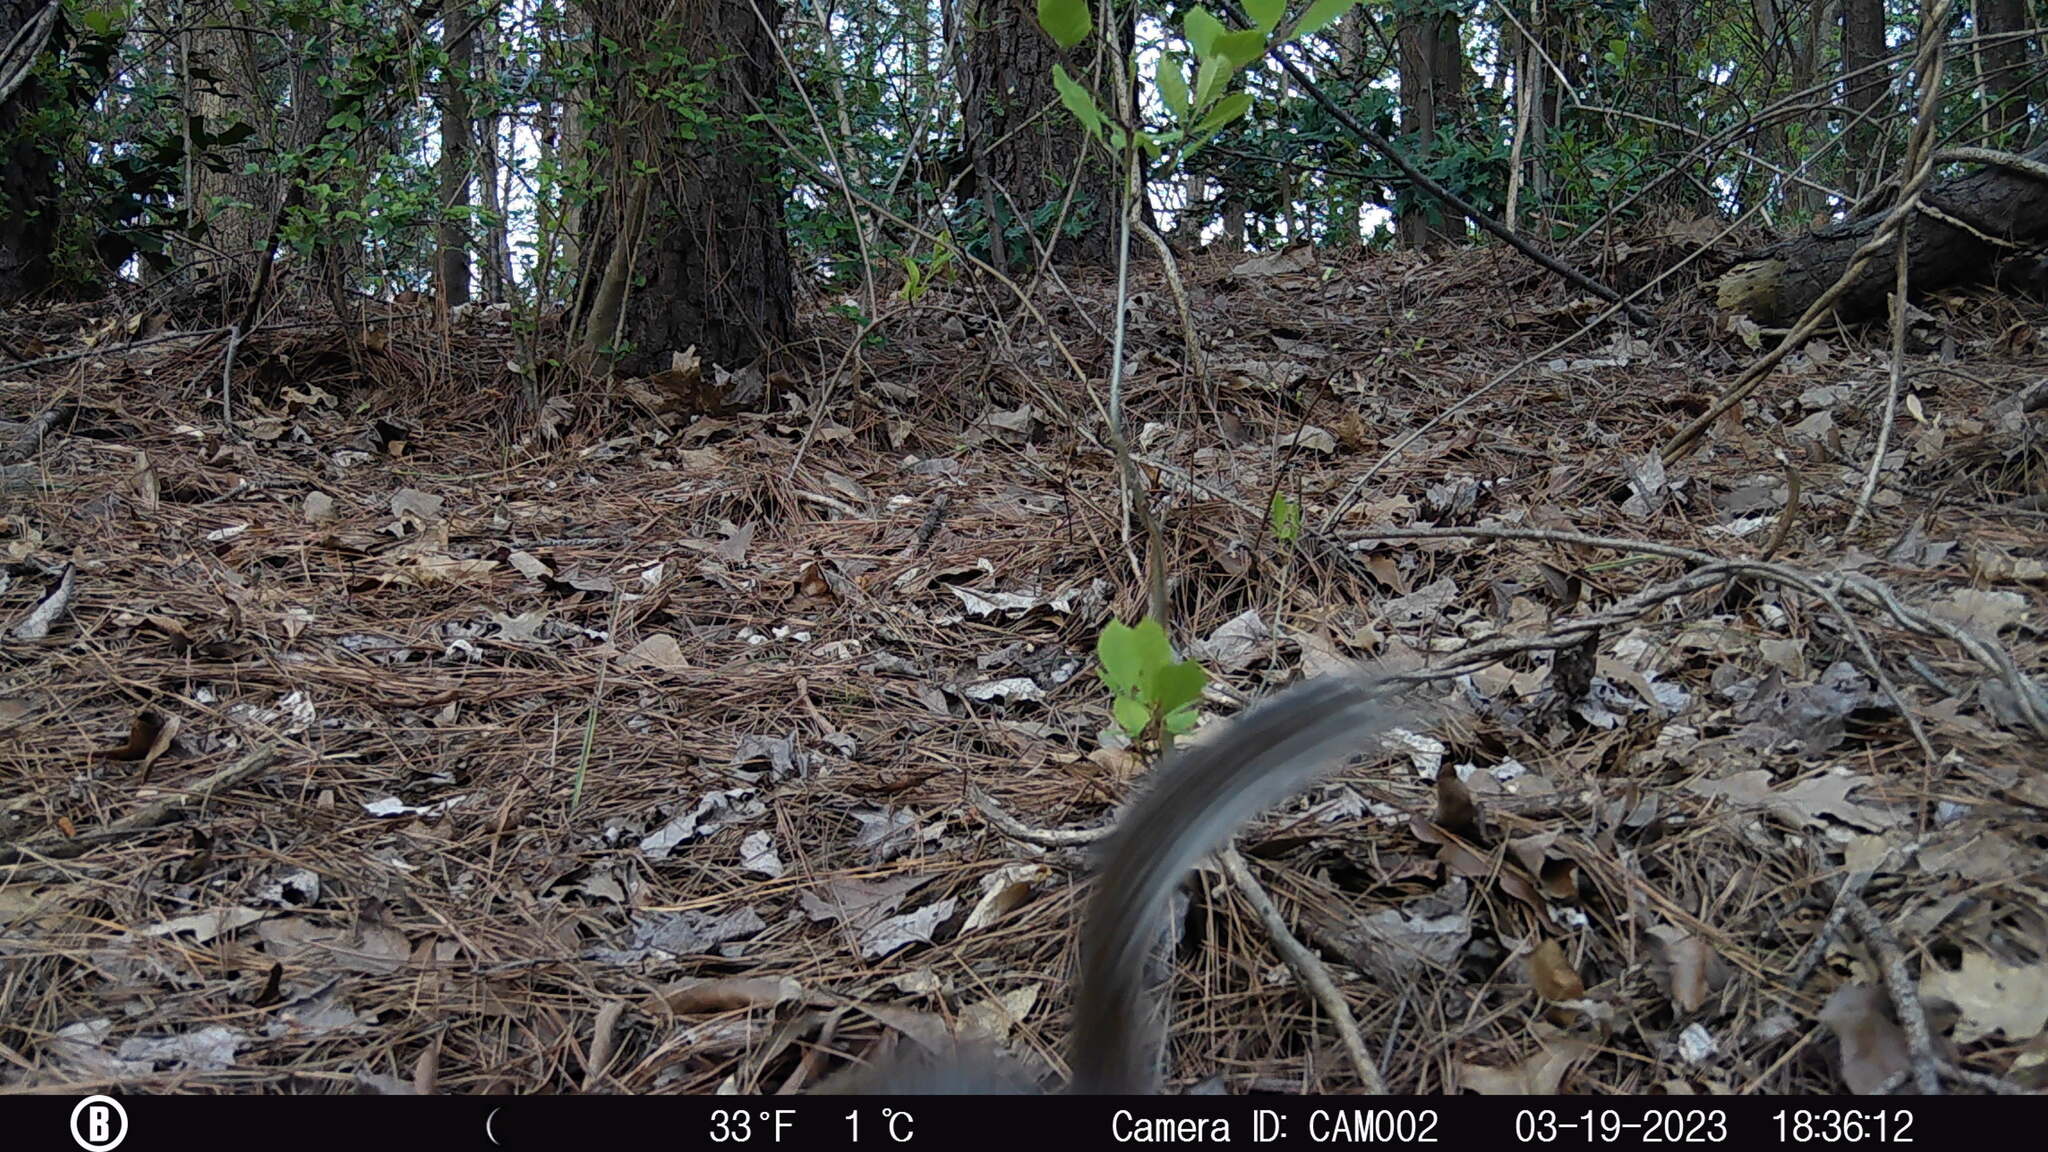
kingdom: Animalia
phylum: Chordata
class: Mammalia
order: Rodentia
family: Sciuridae
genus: Sciurus
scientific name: Sciurus carolinensis
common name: Eastern gray squirrel
